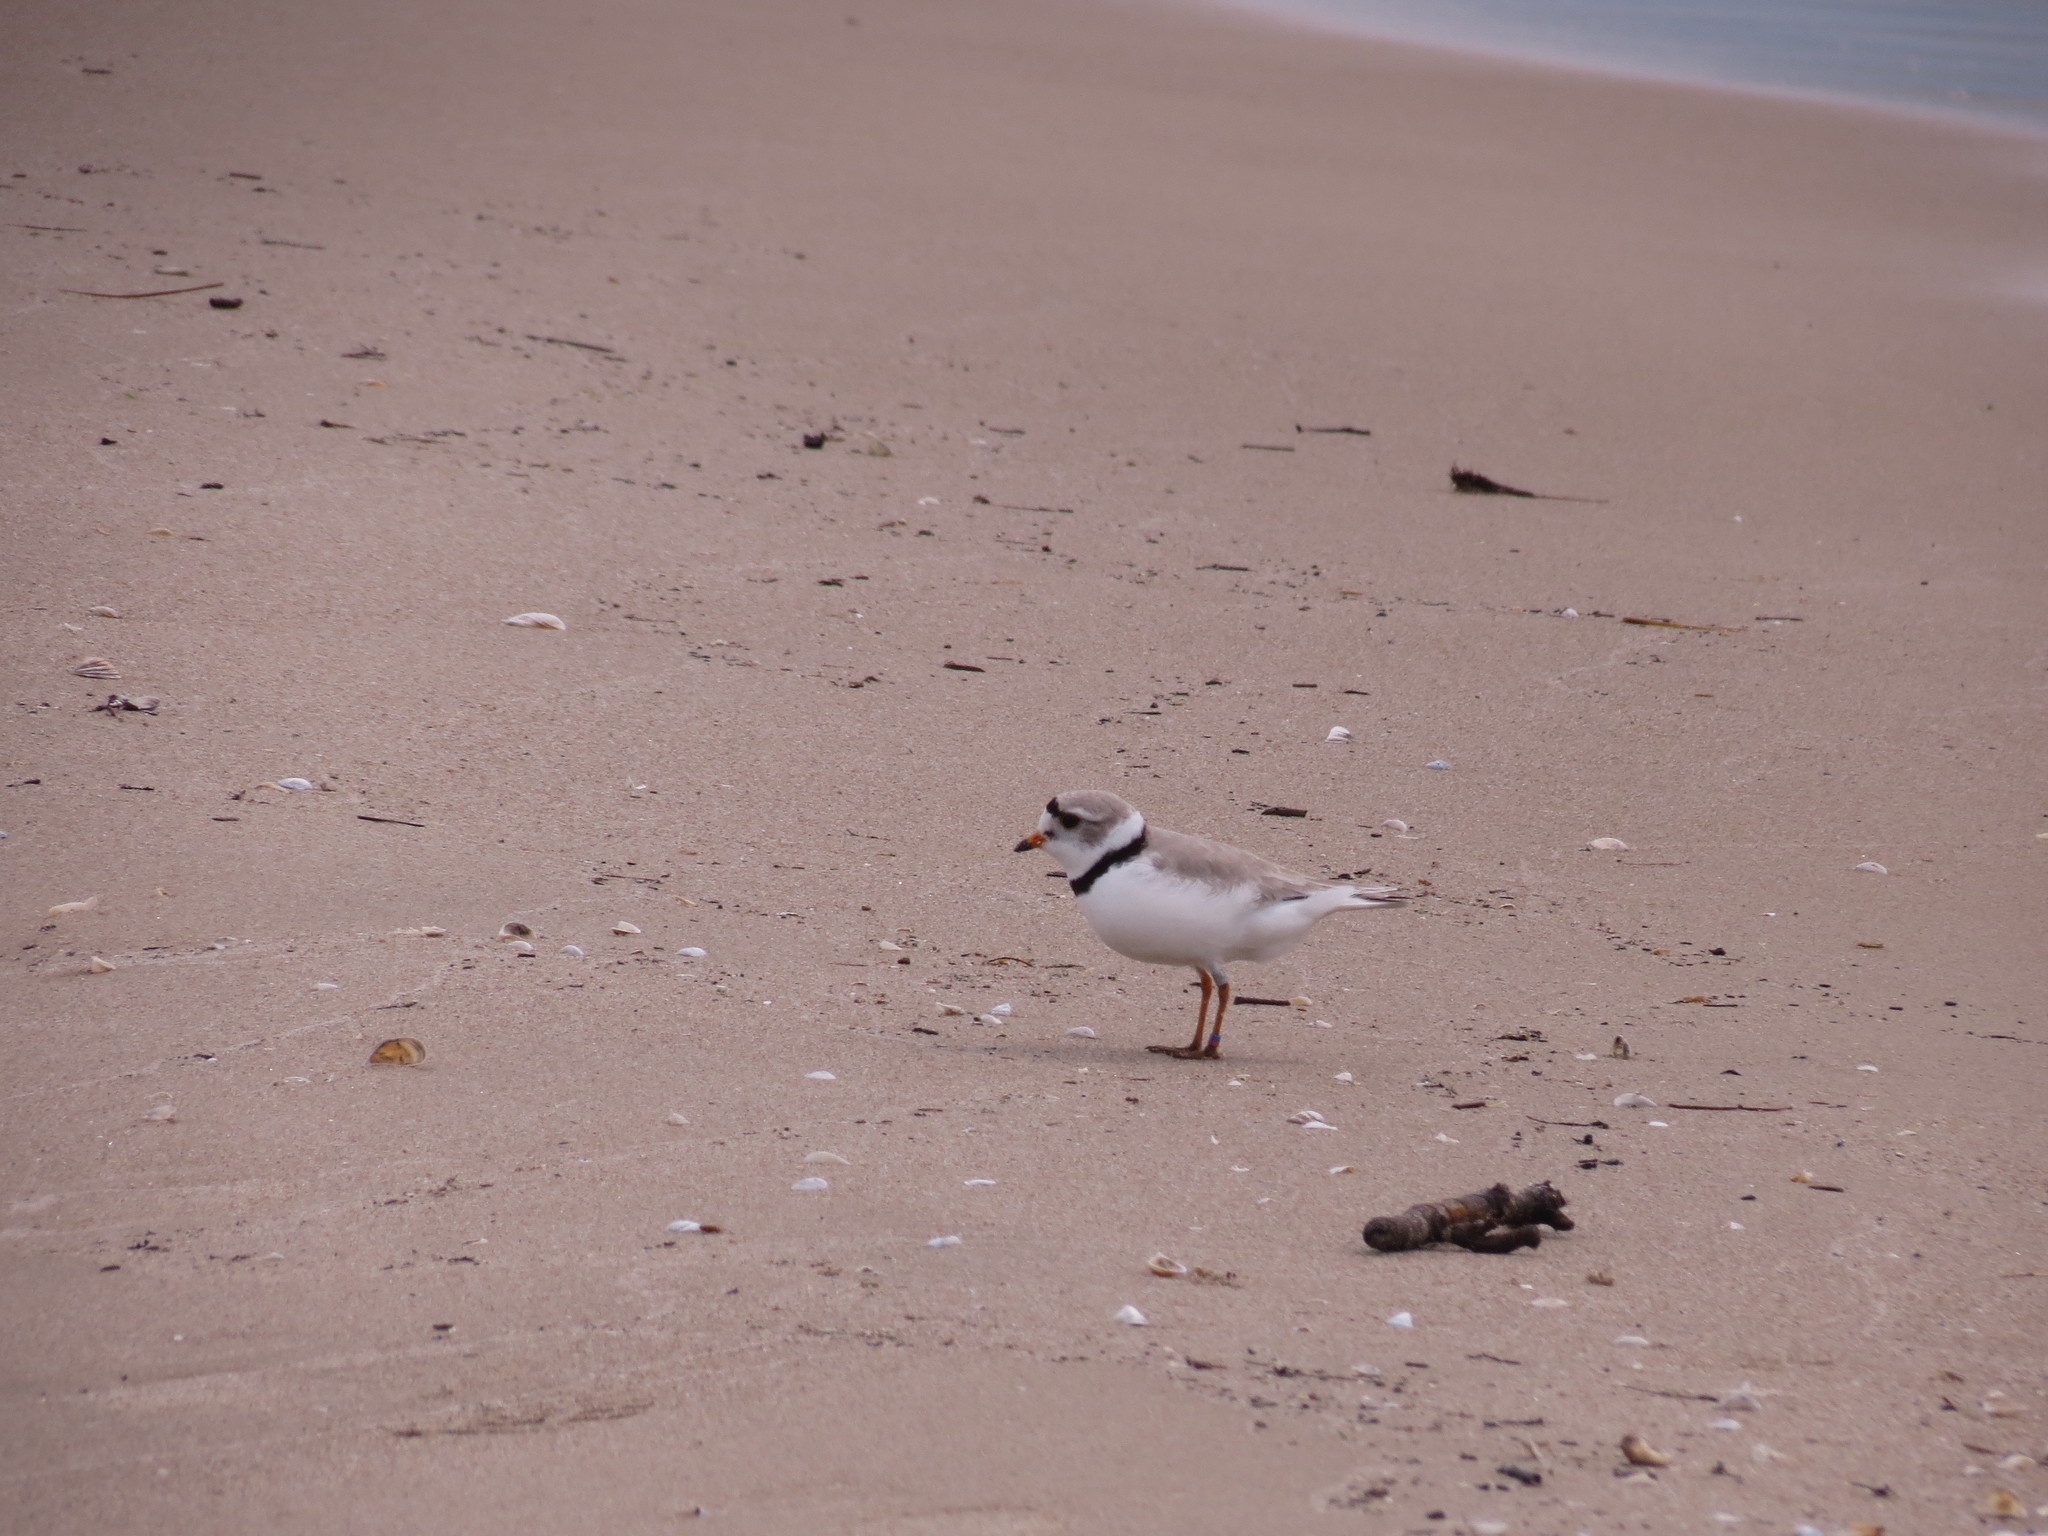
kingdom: Animalia
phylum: Chordata
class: Aves
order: Charadriiformes
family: Charadriidae
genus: Charadrius
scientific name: Charadrius melodus
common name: Piping plover
